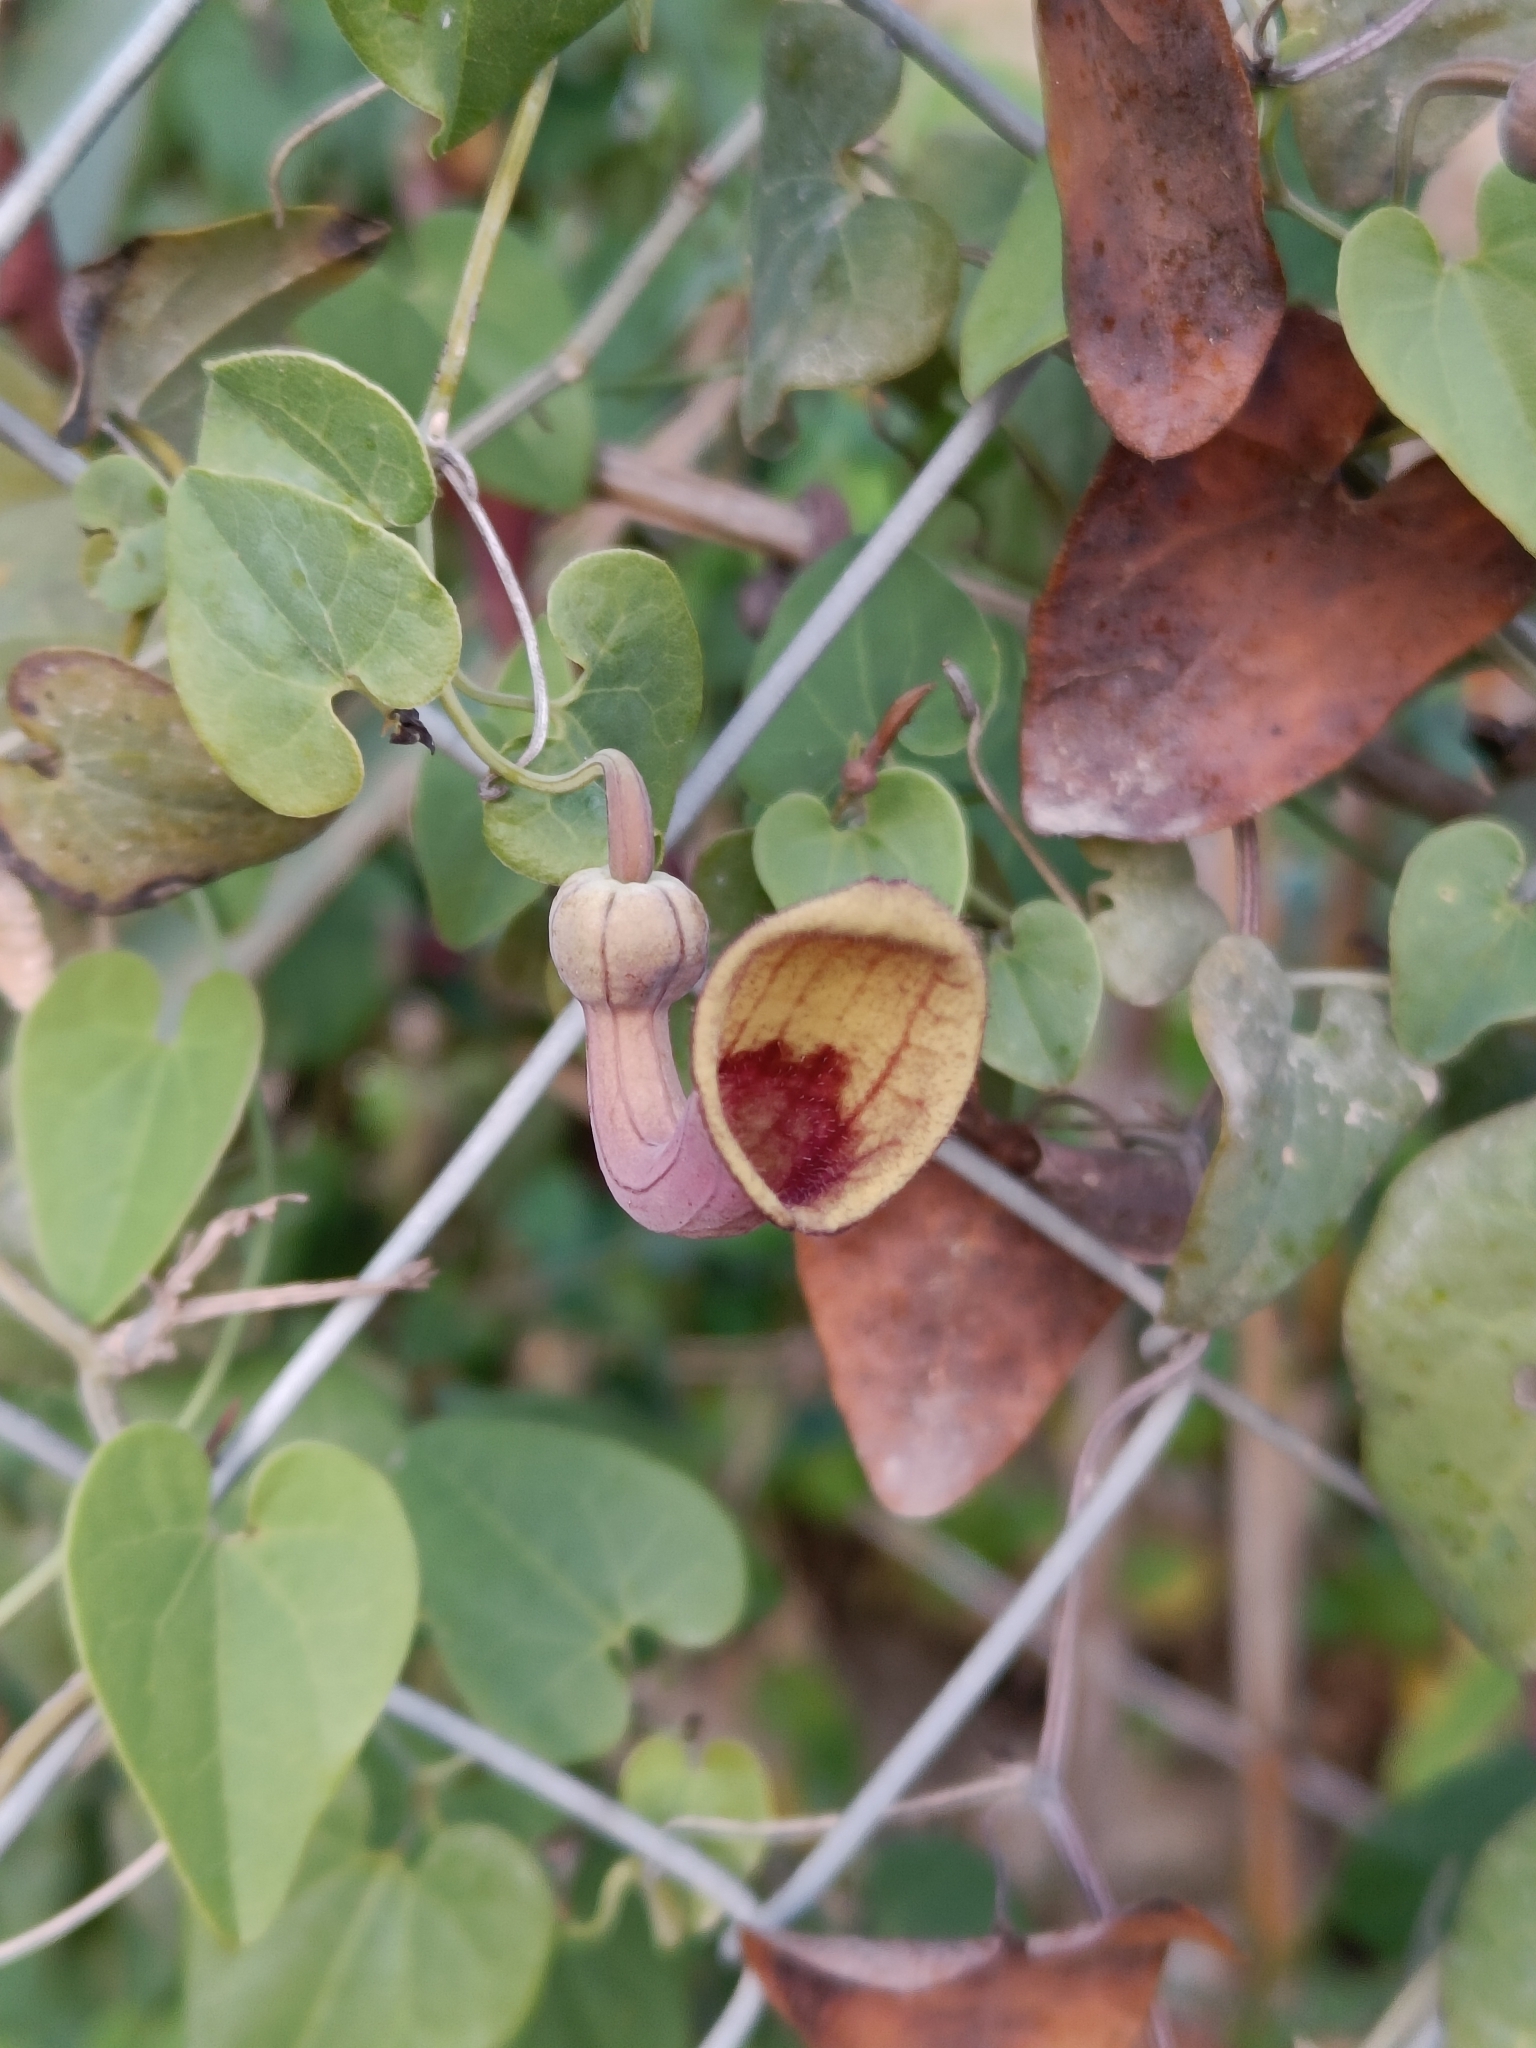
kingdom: Plantae
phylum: Tracheophyta
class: Magnoliopsida
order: Piperales
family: Aristolochiaceae
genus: Aristolochia
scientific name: Aristolochia baetica
